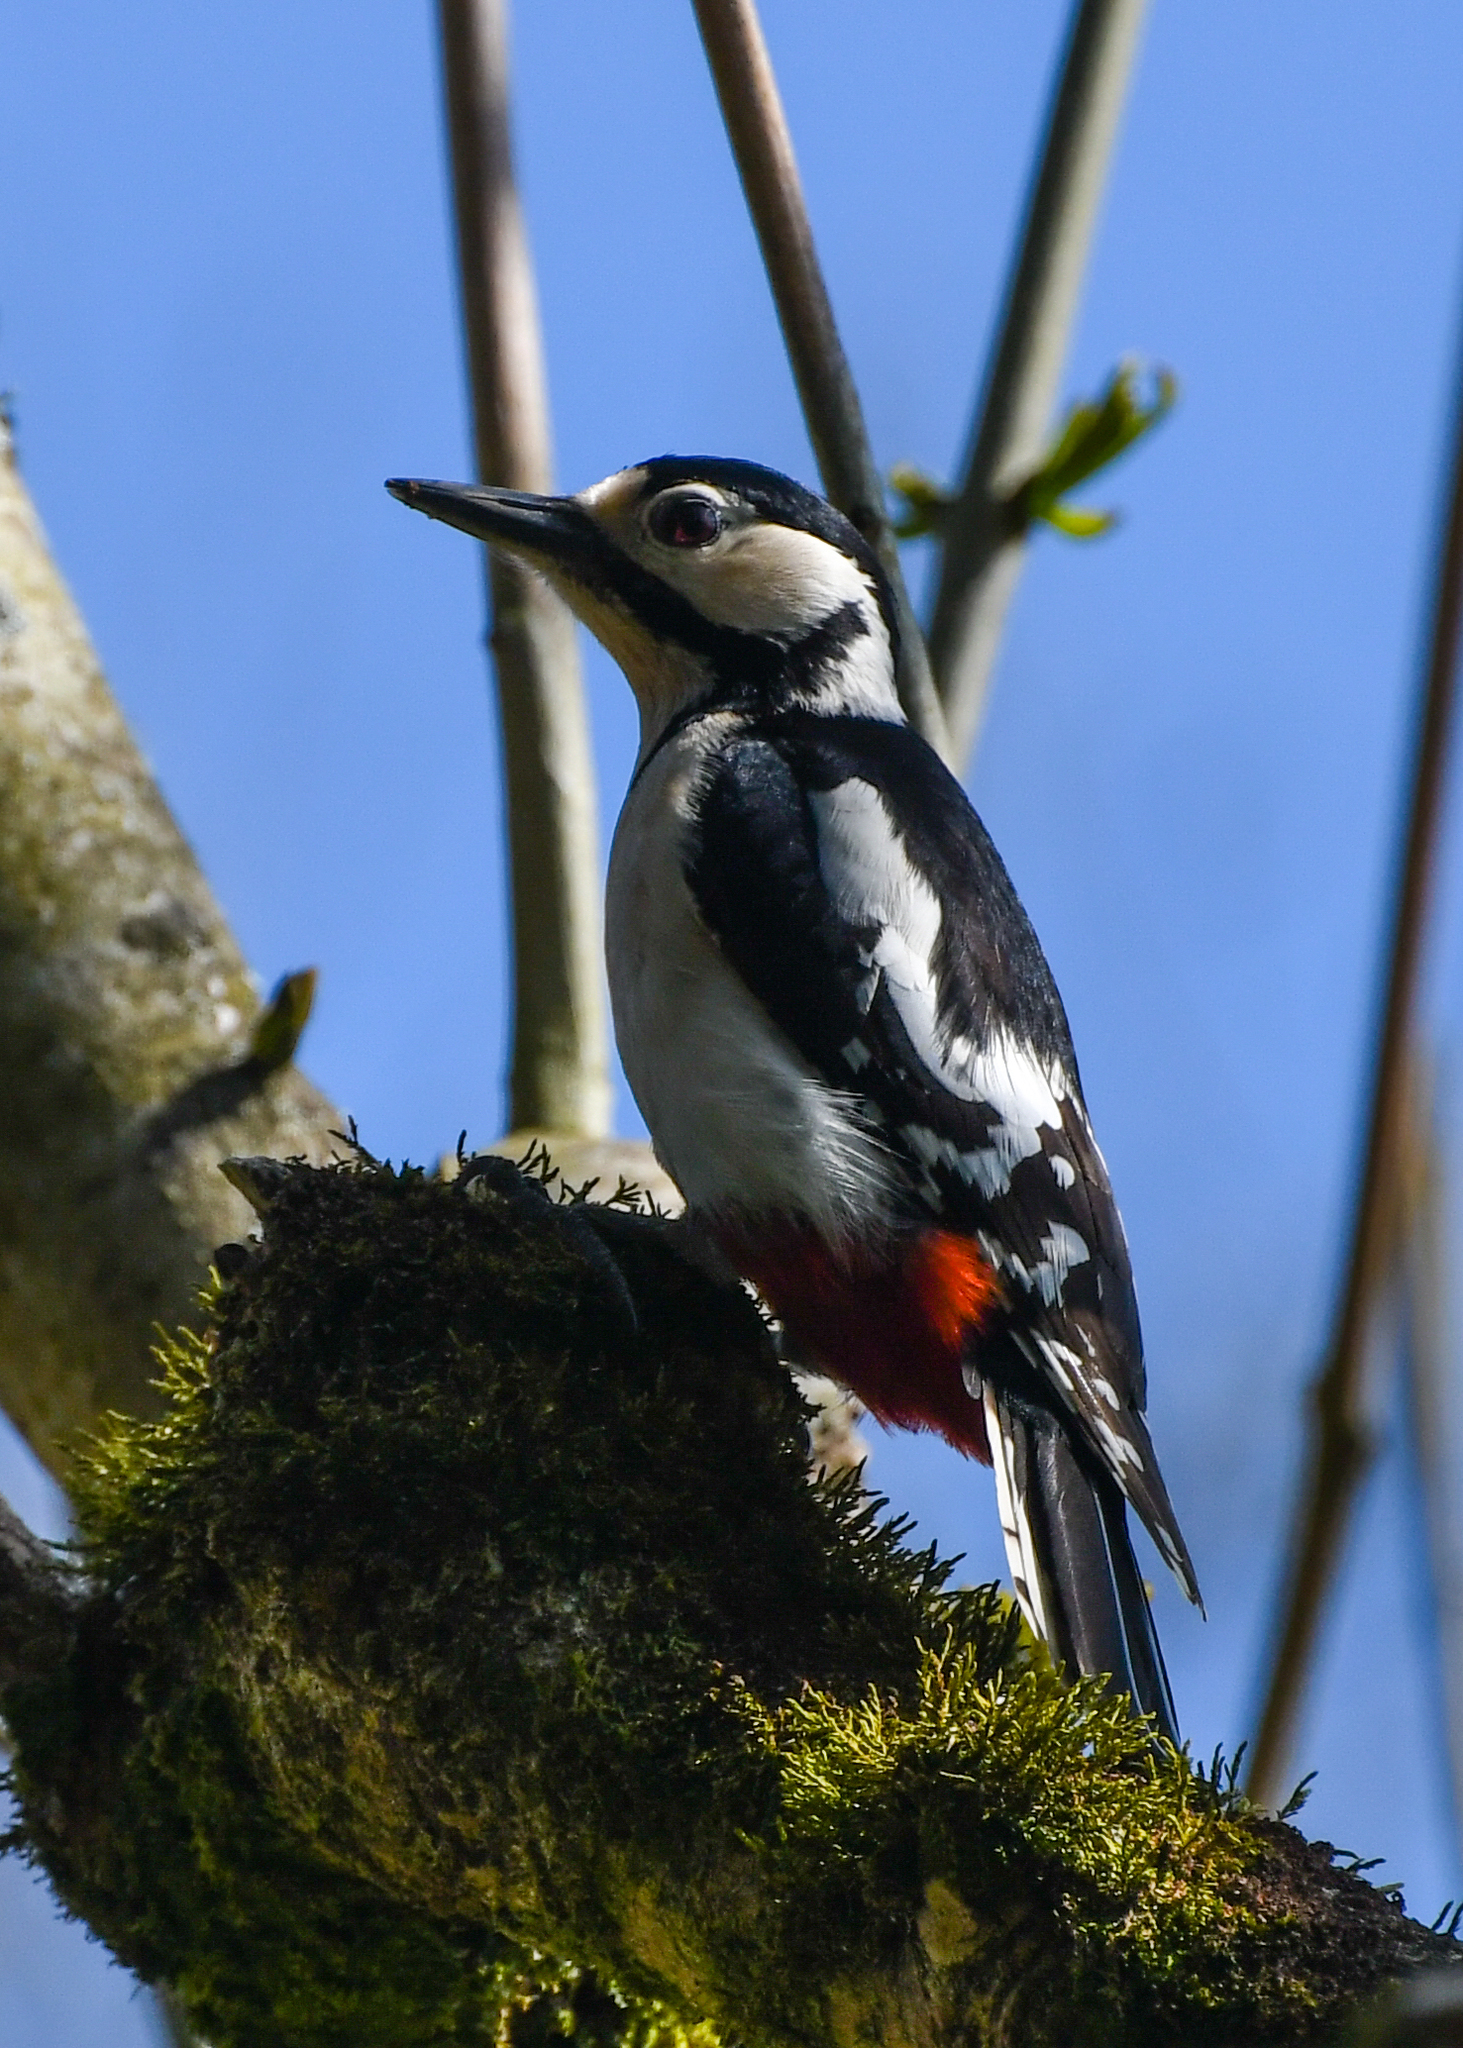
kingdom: Animalia
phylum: Chordata
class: Aves
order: Piciformes
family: Picidae
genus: Dendrocopos
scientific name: Dendrocopos major
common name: Great spotted woodpecker
